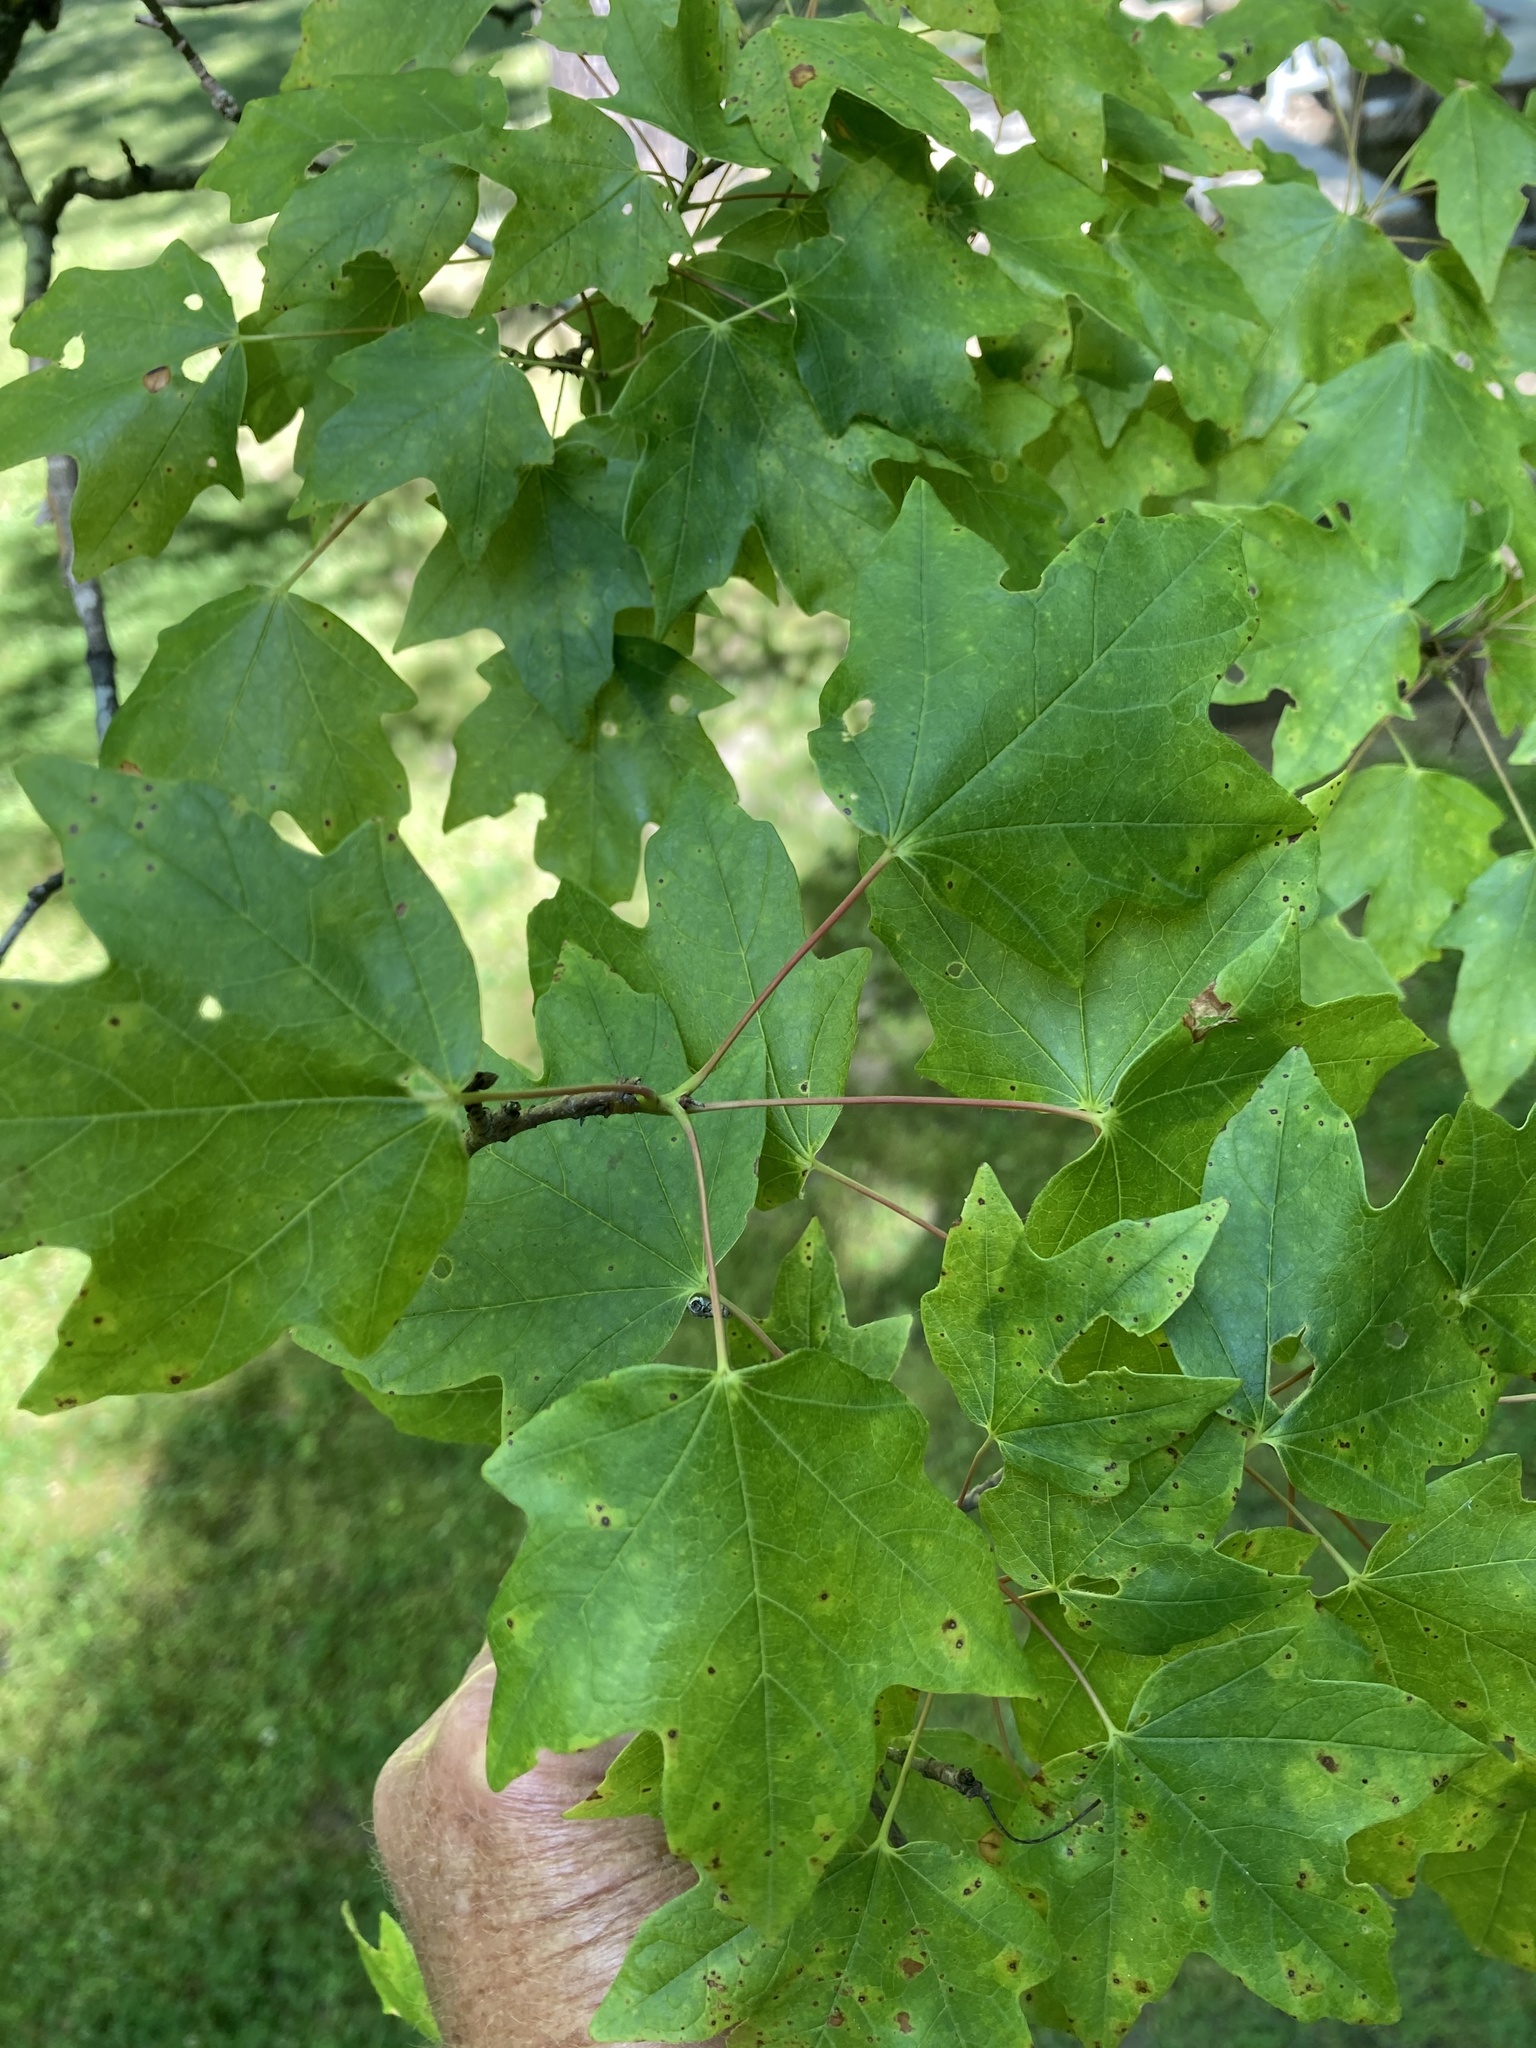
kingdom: Plantae
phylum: Tracheophyta
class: Magnoliopsida
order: Sapindales
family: Sapindaceae
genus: Acer
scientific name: Acer rubrum
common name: Red maple
